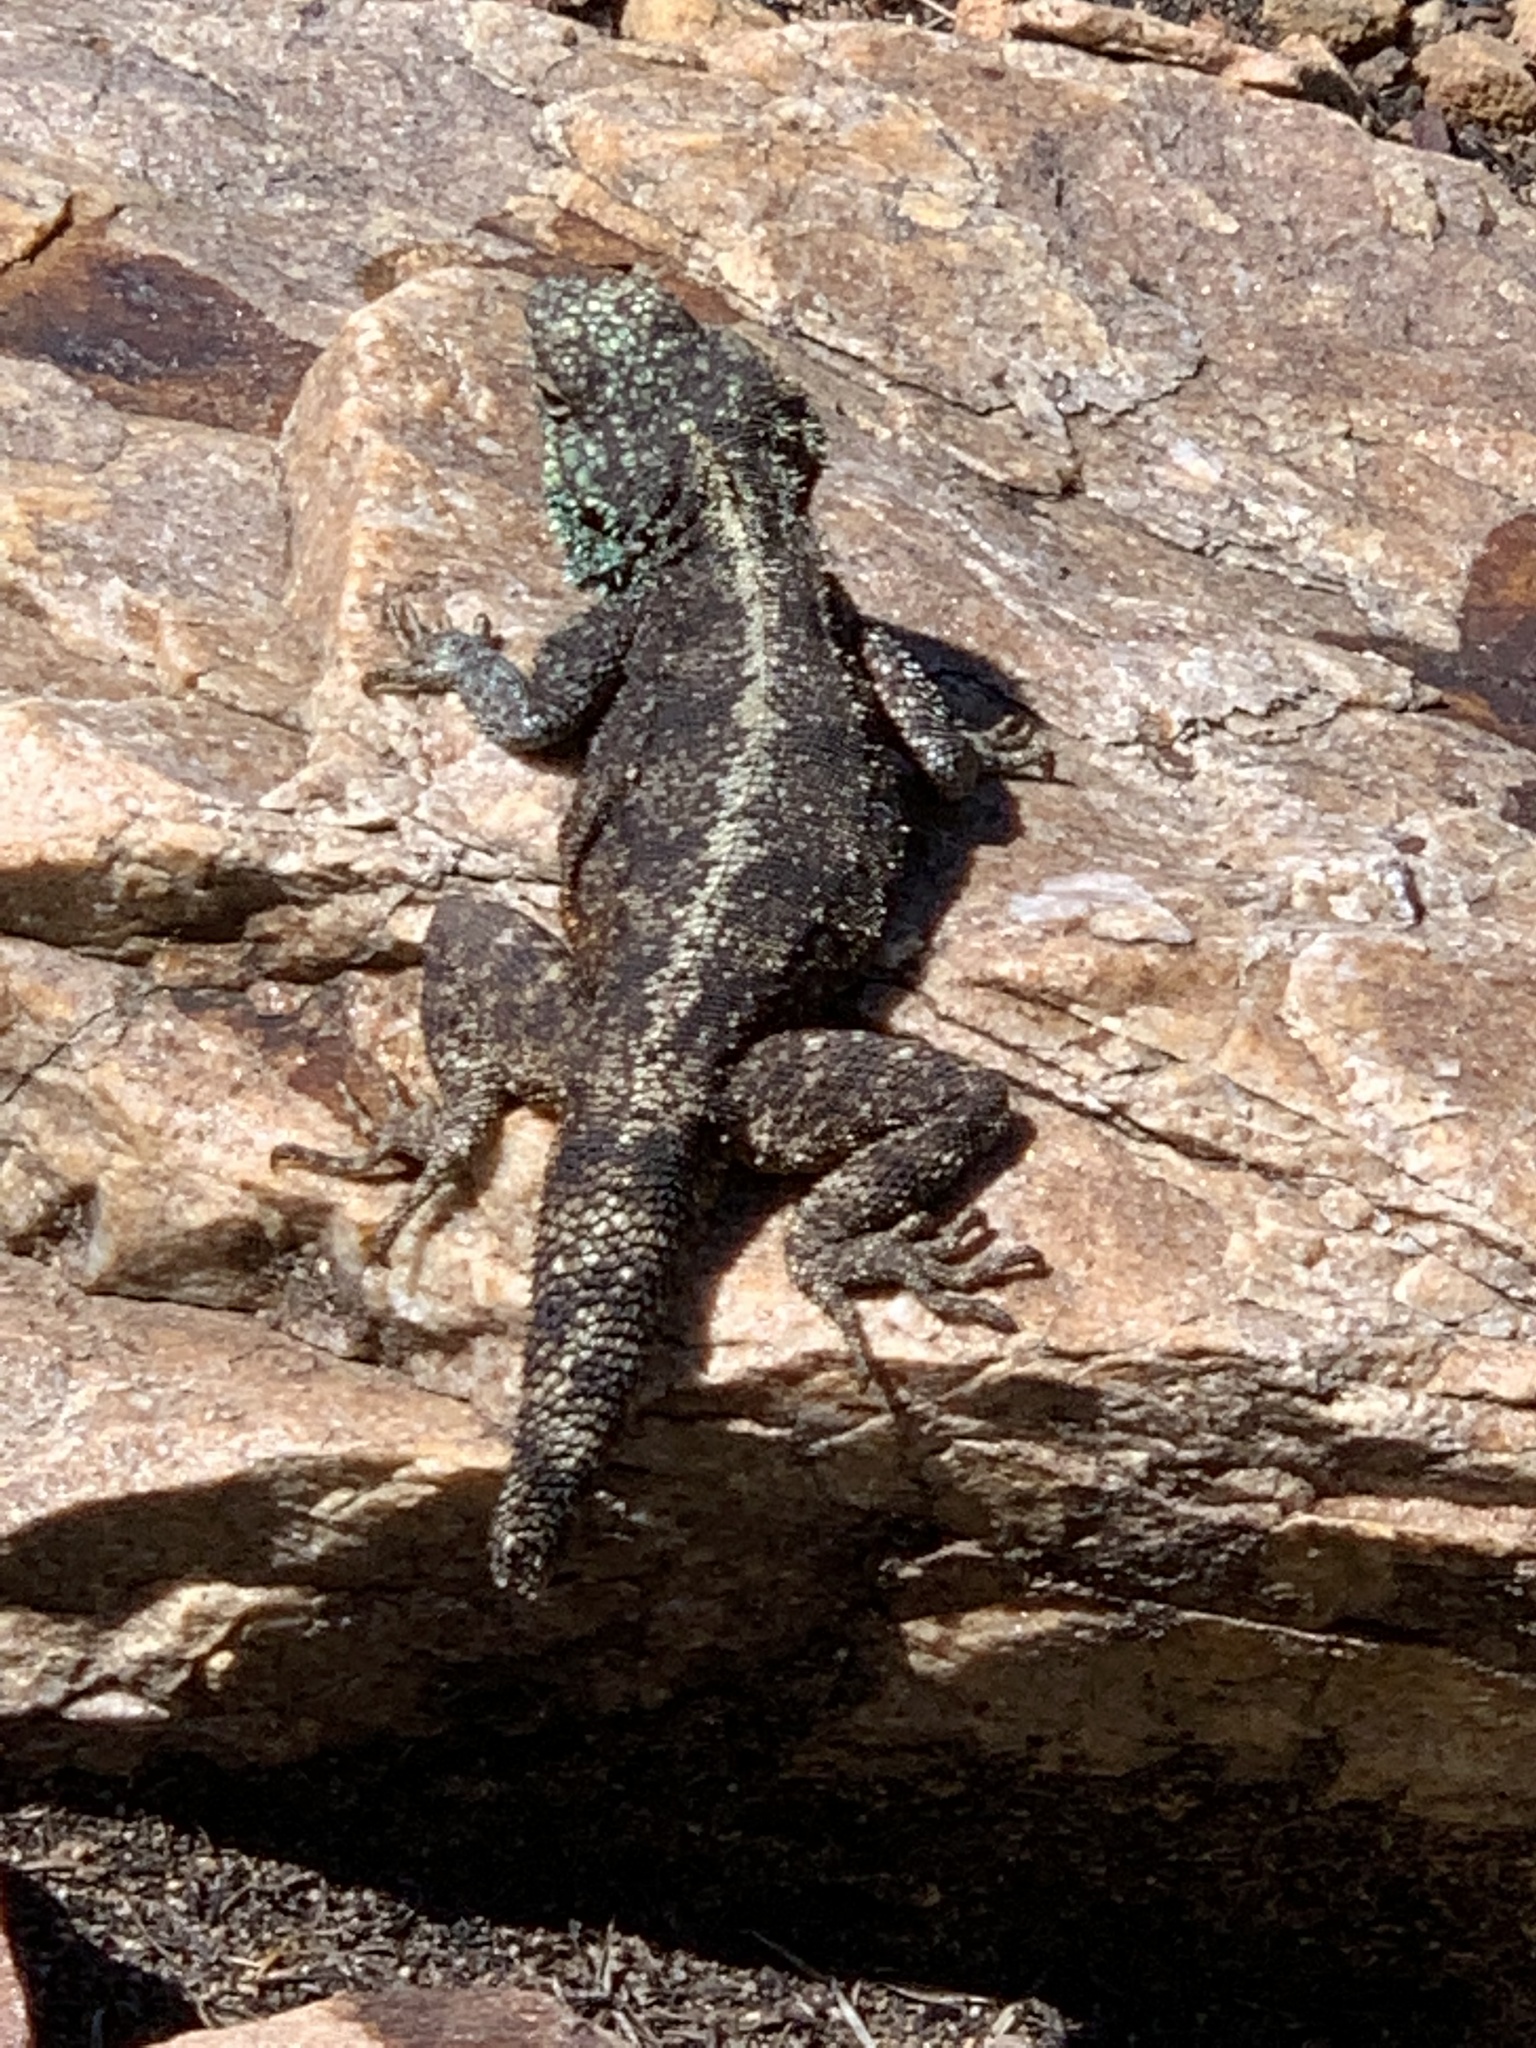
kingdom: Animalia
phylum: Chordata
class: Squamata
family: Agamidae
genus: Agama
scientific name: Agama atra
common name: Southern african rock agama
